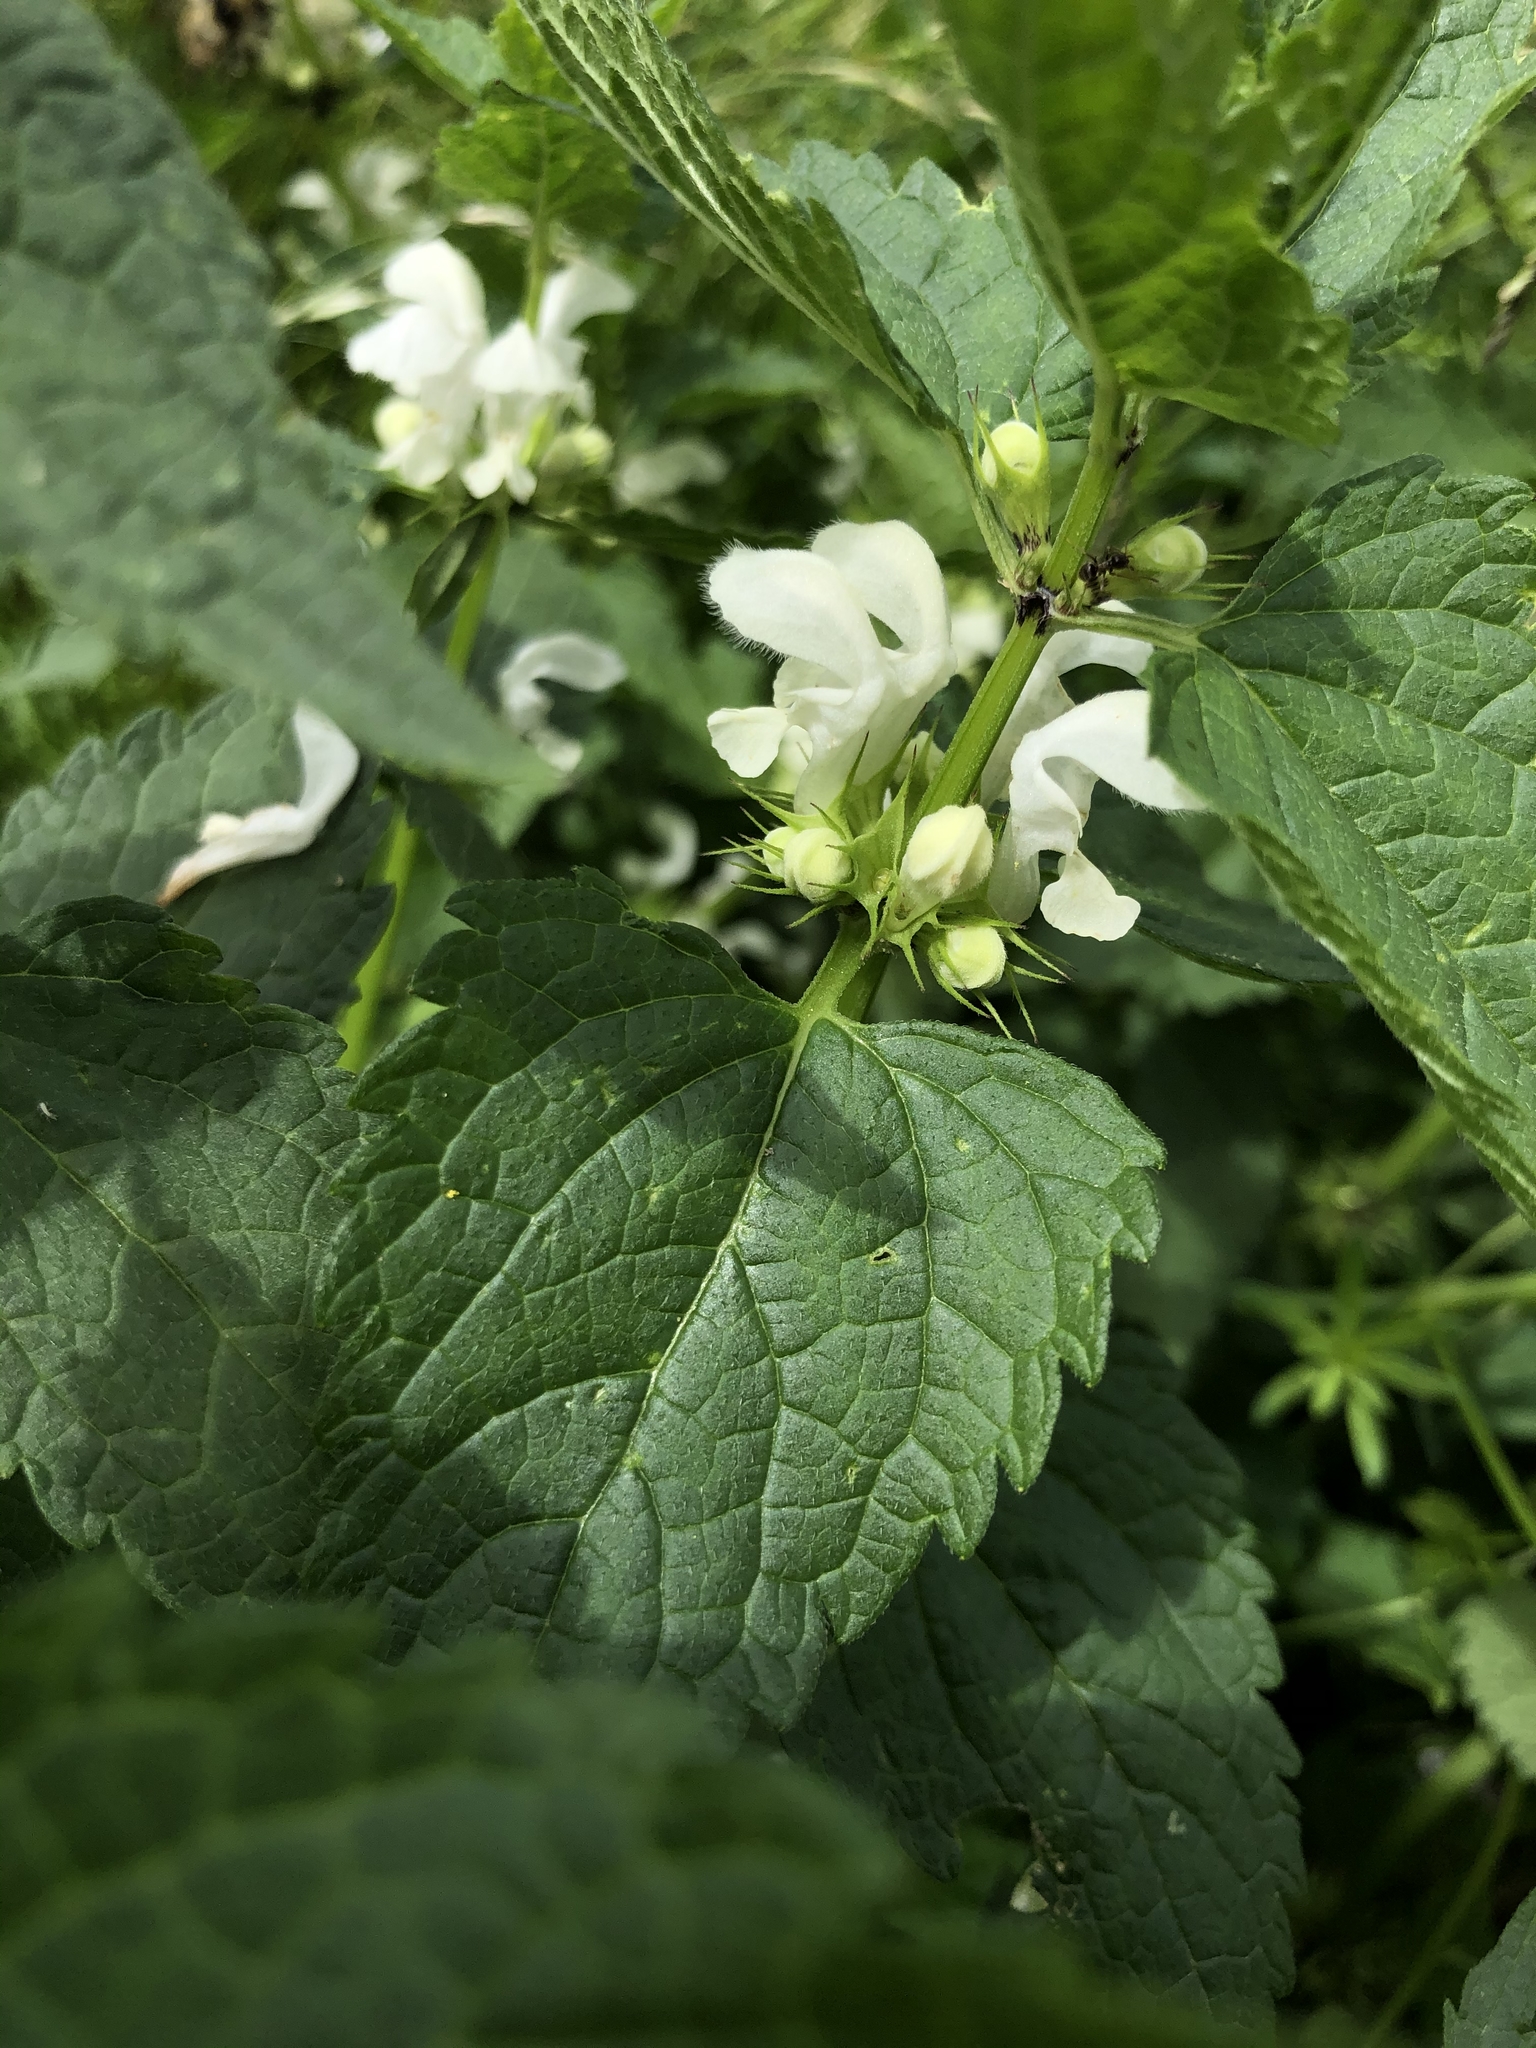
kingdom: Plantae
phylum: Tracheophyta
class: Magnoliopsida
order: Lamiales
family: Lamiaceae
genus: Lamium
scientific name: Lamium album
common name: White dead-nettle
